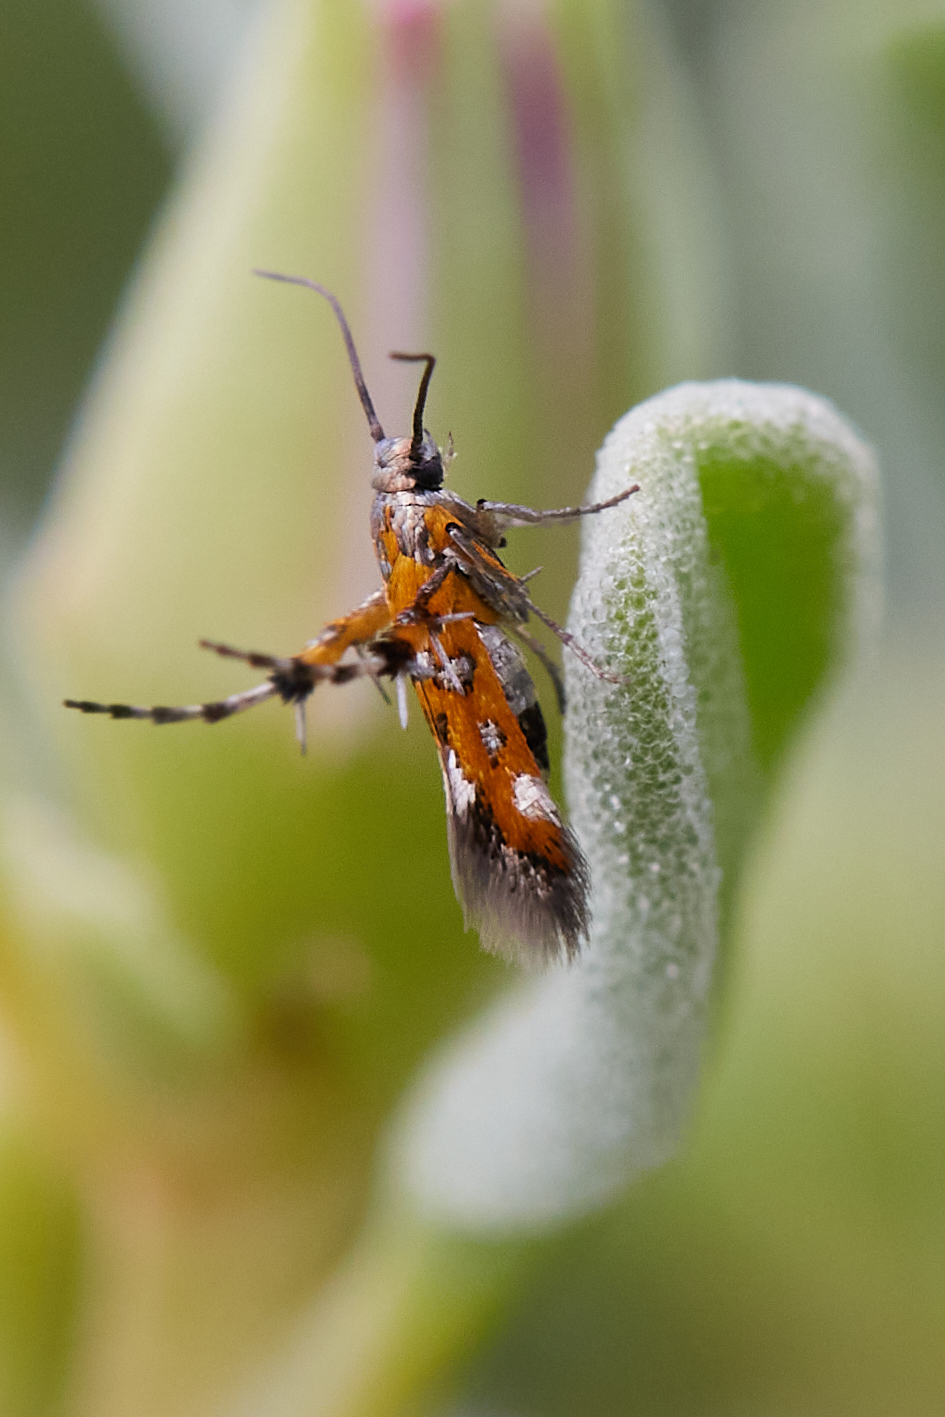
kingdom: Animalia
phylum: Arthropoda
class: Insecta
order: Lepidoptera
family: Heliodinidae
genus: Heliodines
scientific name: Heliodines
